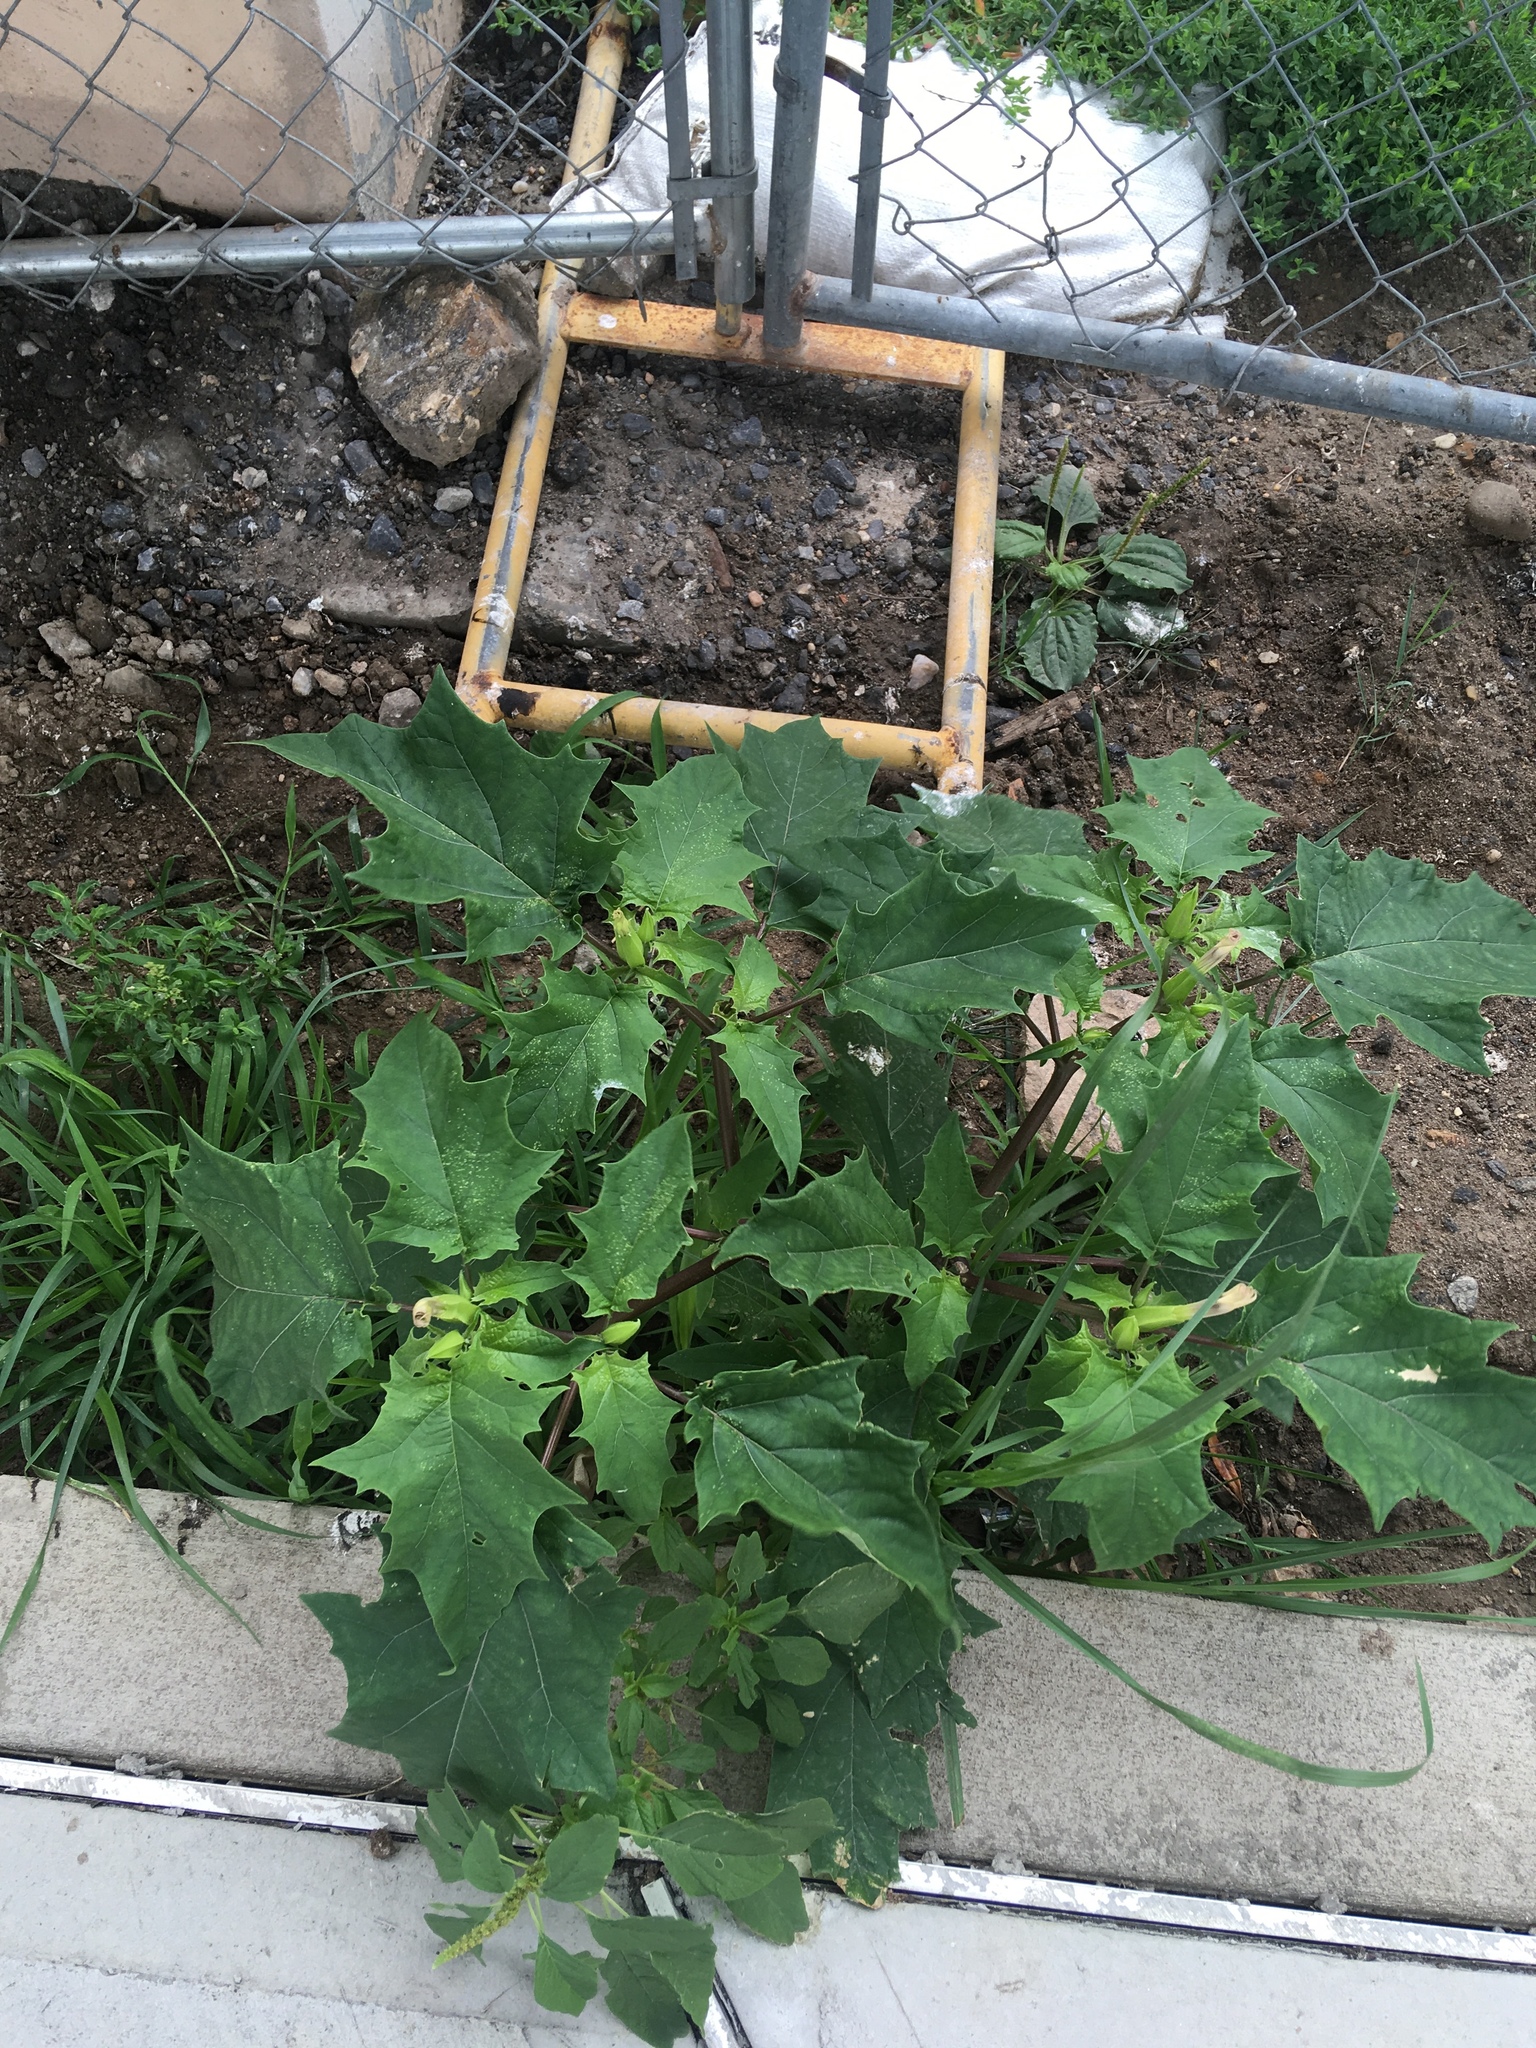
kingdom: Plantae
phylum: Tracheophyta
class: Magnoliopsida
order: Solanales
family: Solanaceae
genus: Datura
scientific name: Datura stramonium
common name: Thorn-apple
